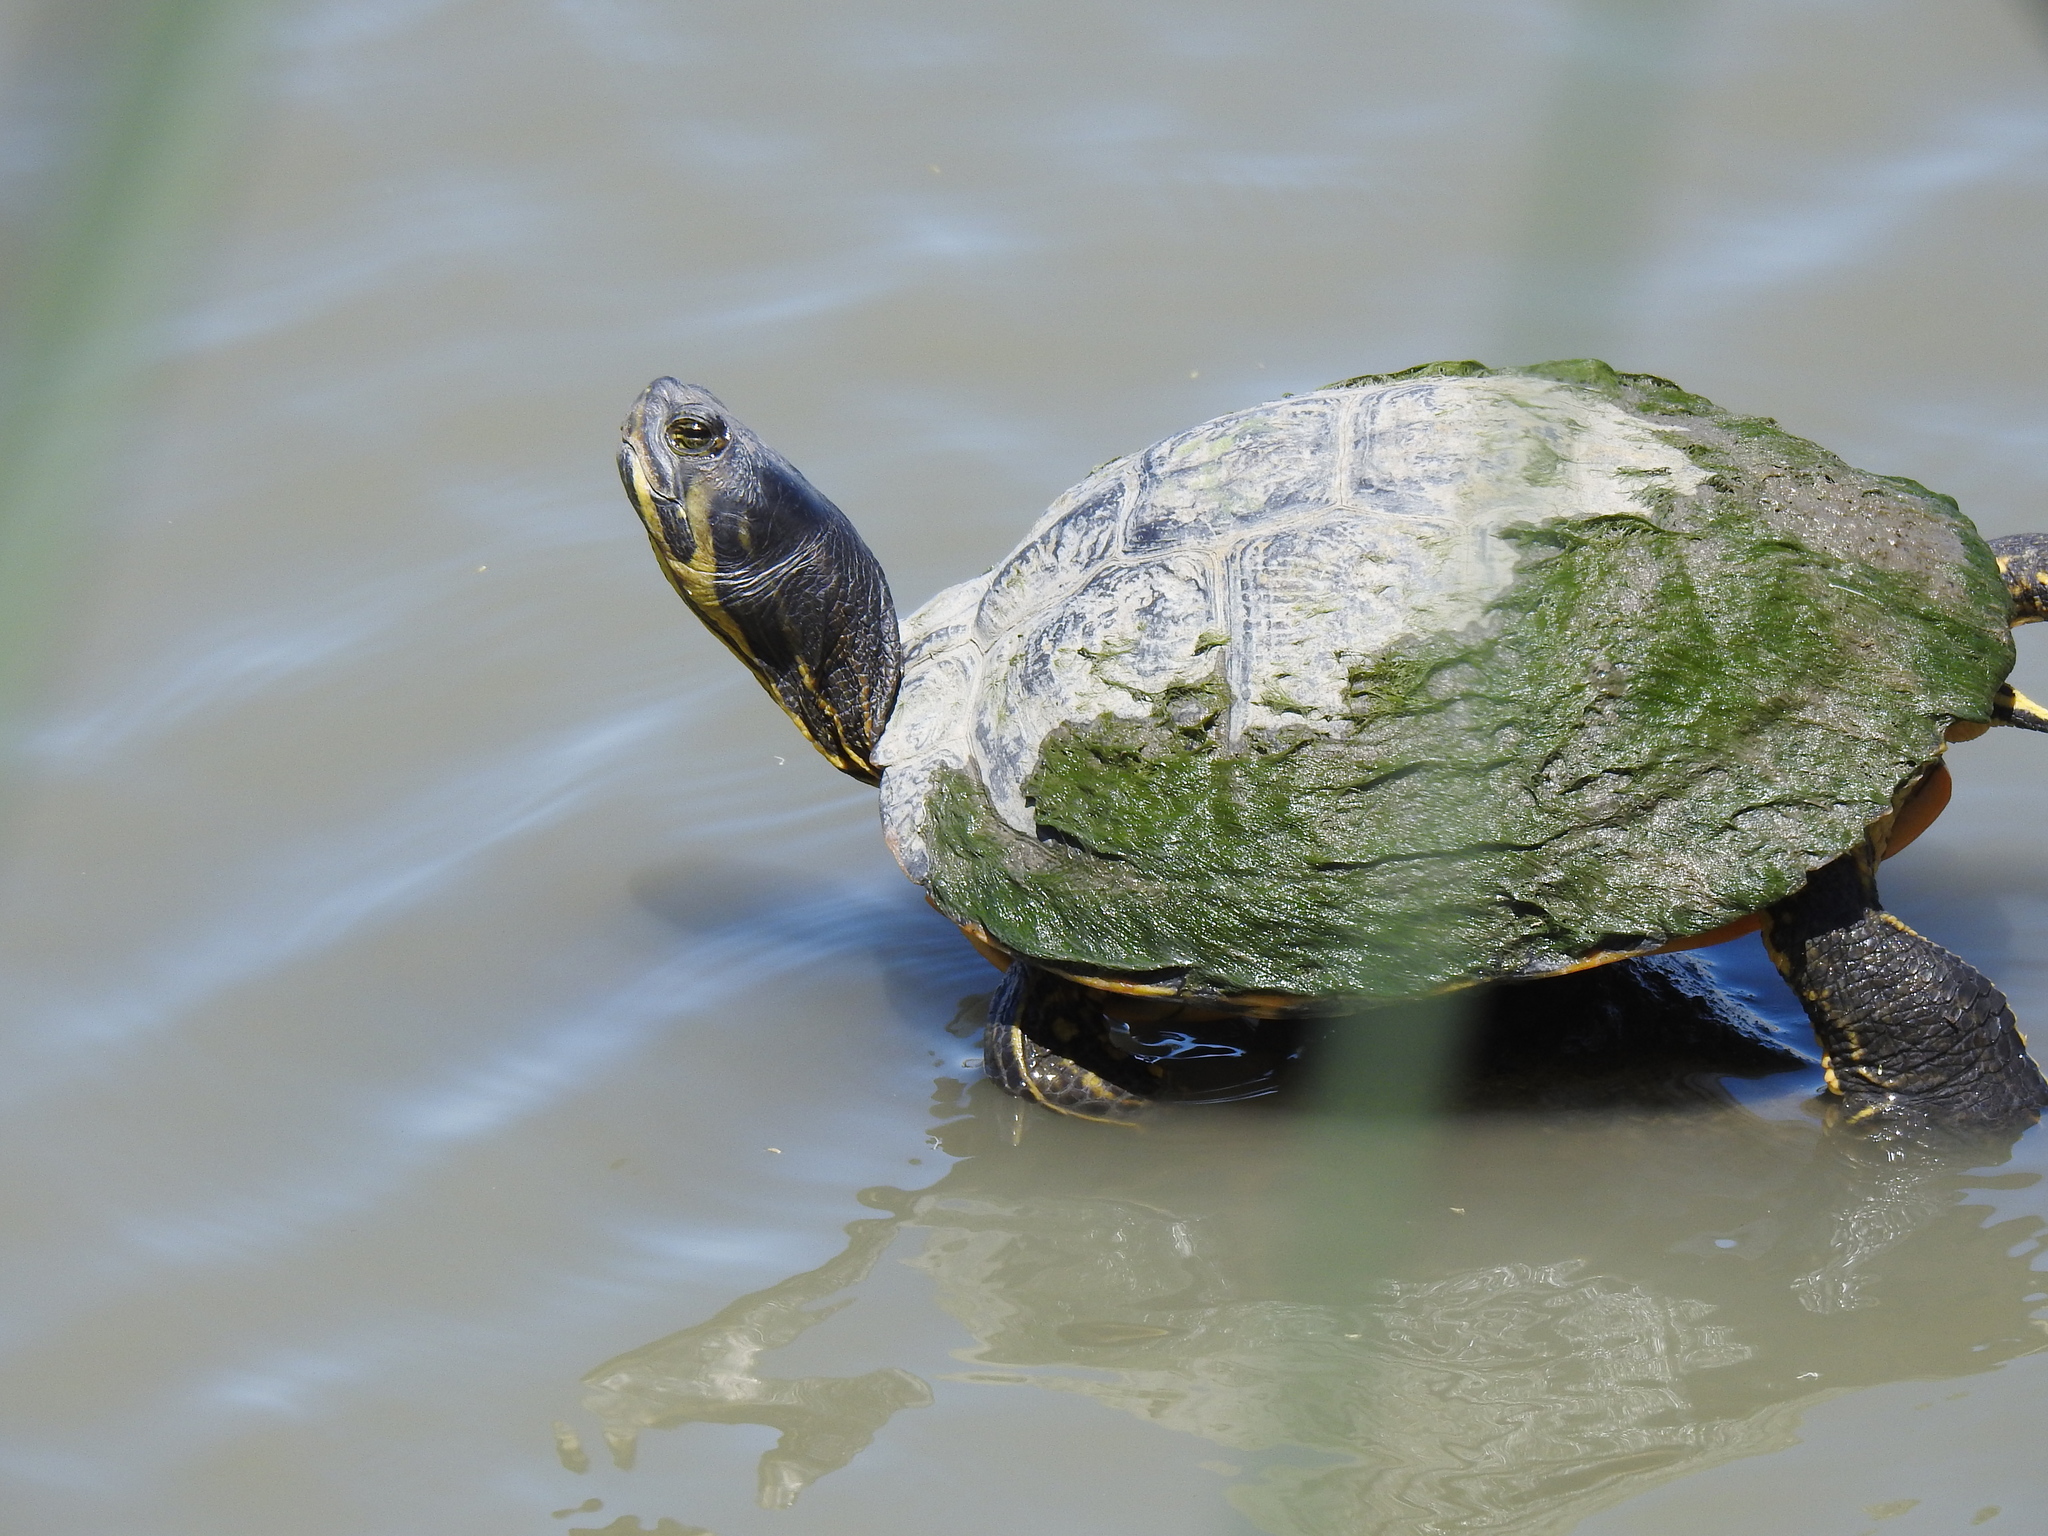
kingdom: Animalia
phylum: Chordata
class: Testudines
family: Emydidae
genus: Trachemys
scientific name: Trachemys scripta
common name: Slider
